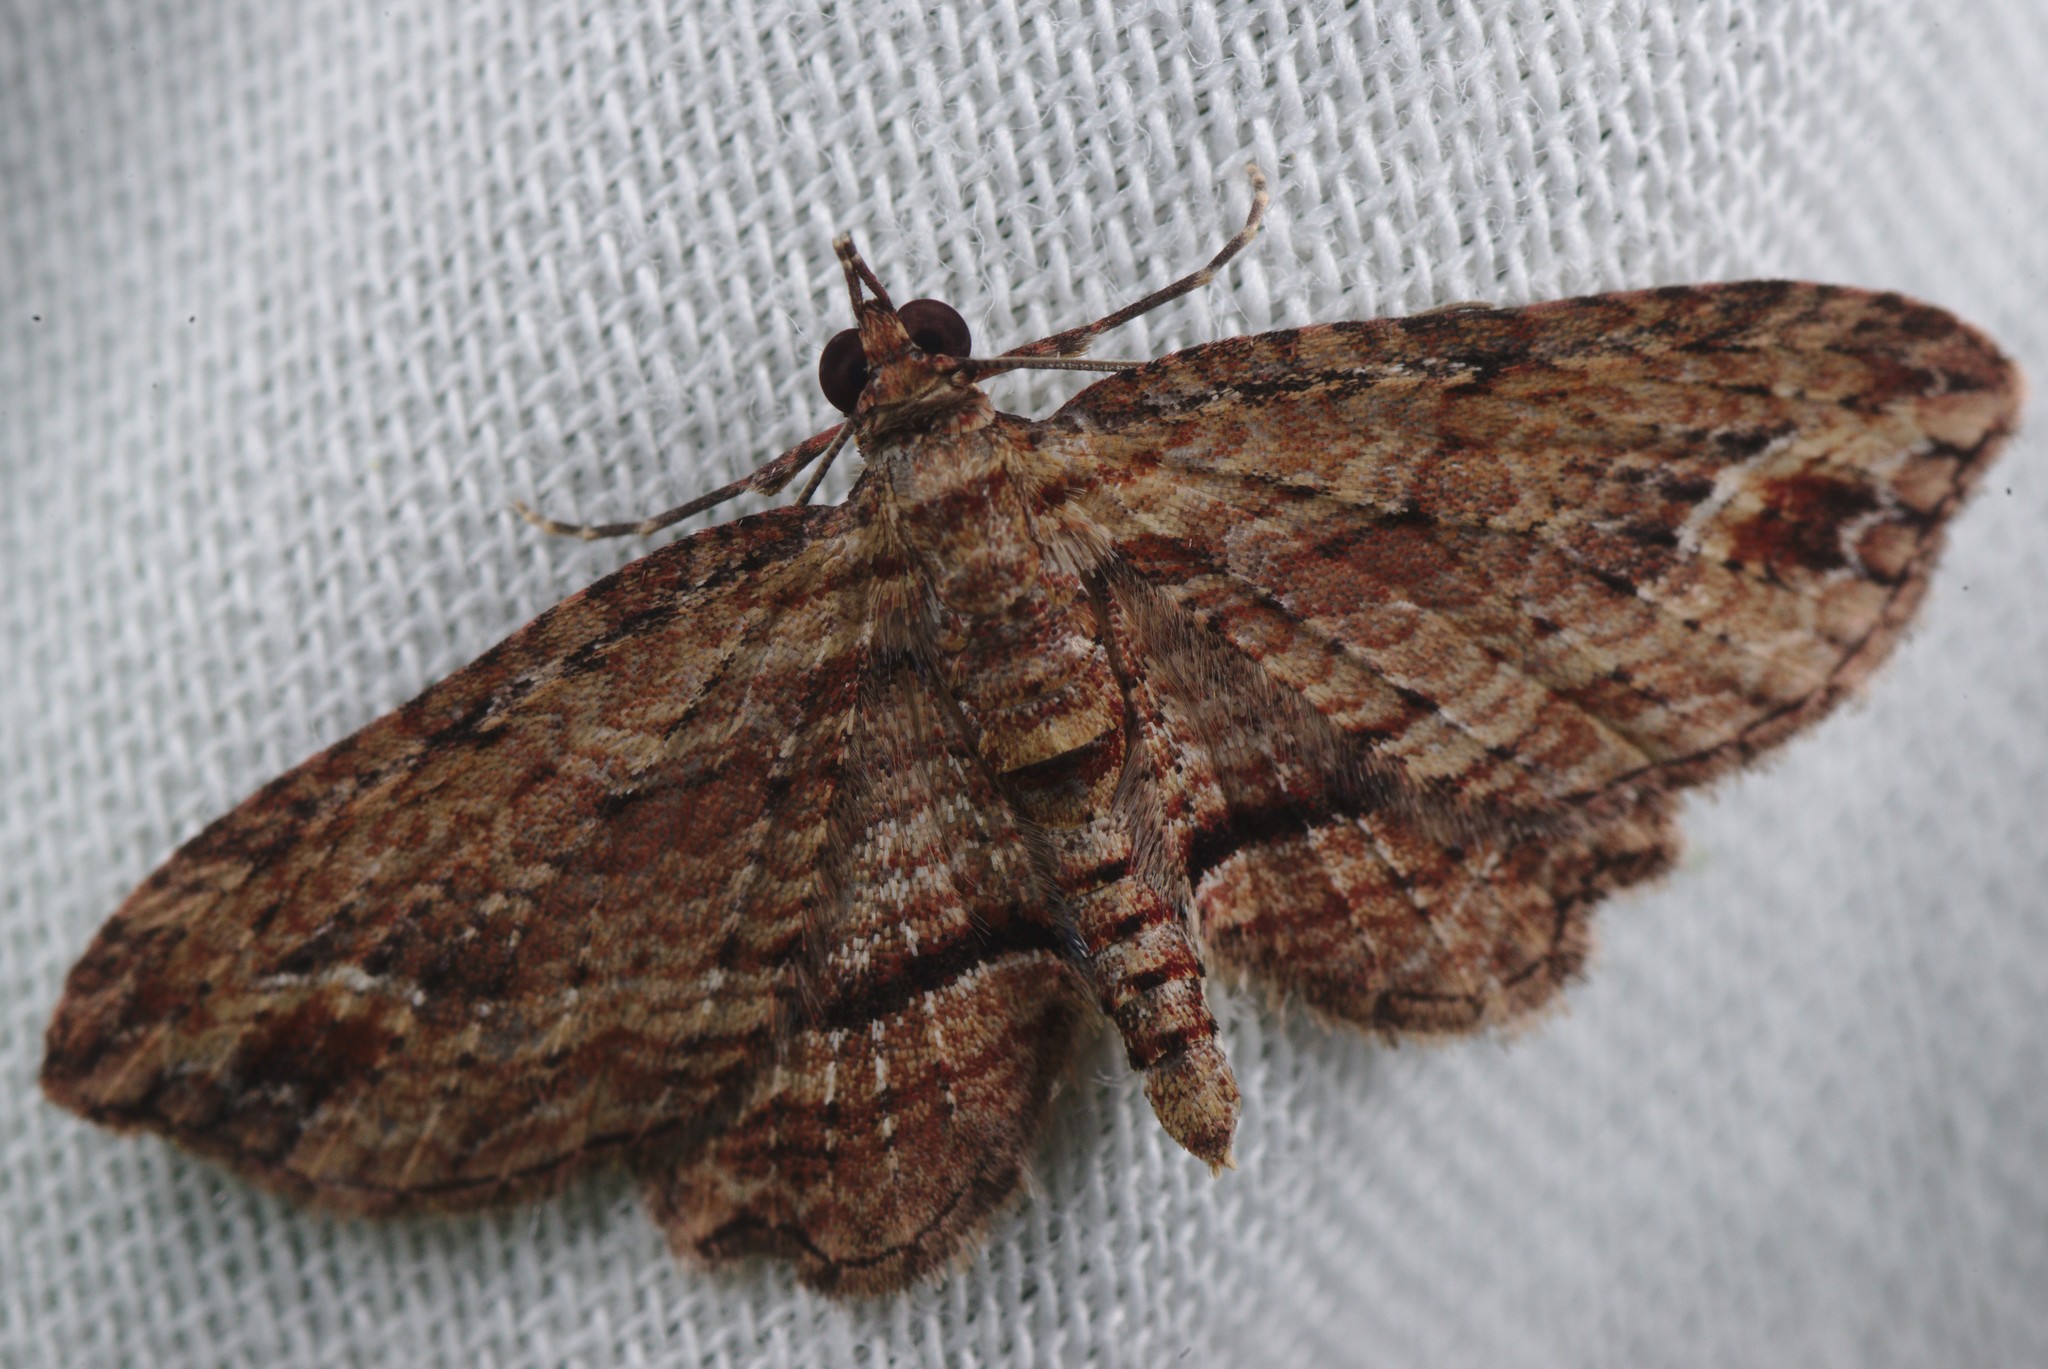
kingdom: Animalia
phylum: Arthropoda
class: Insecta
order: Lepidoptera
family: Geometridae
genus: Chloroclystis
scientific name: Chloroclystis filata
